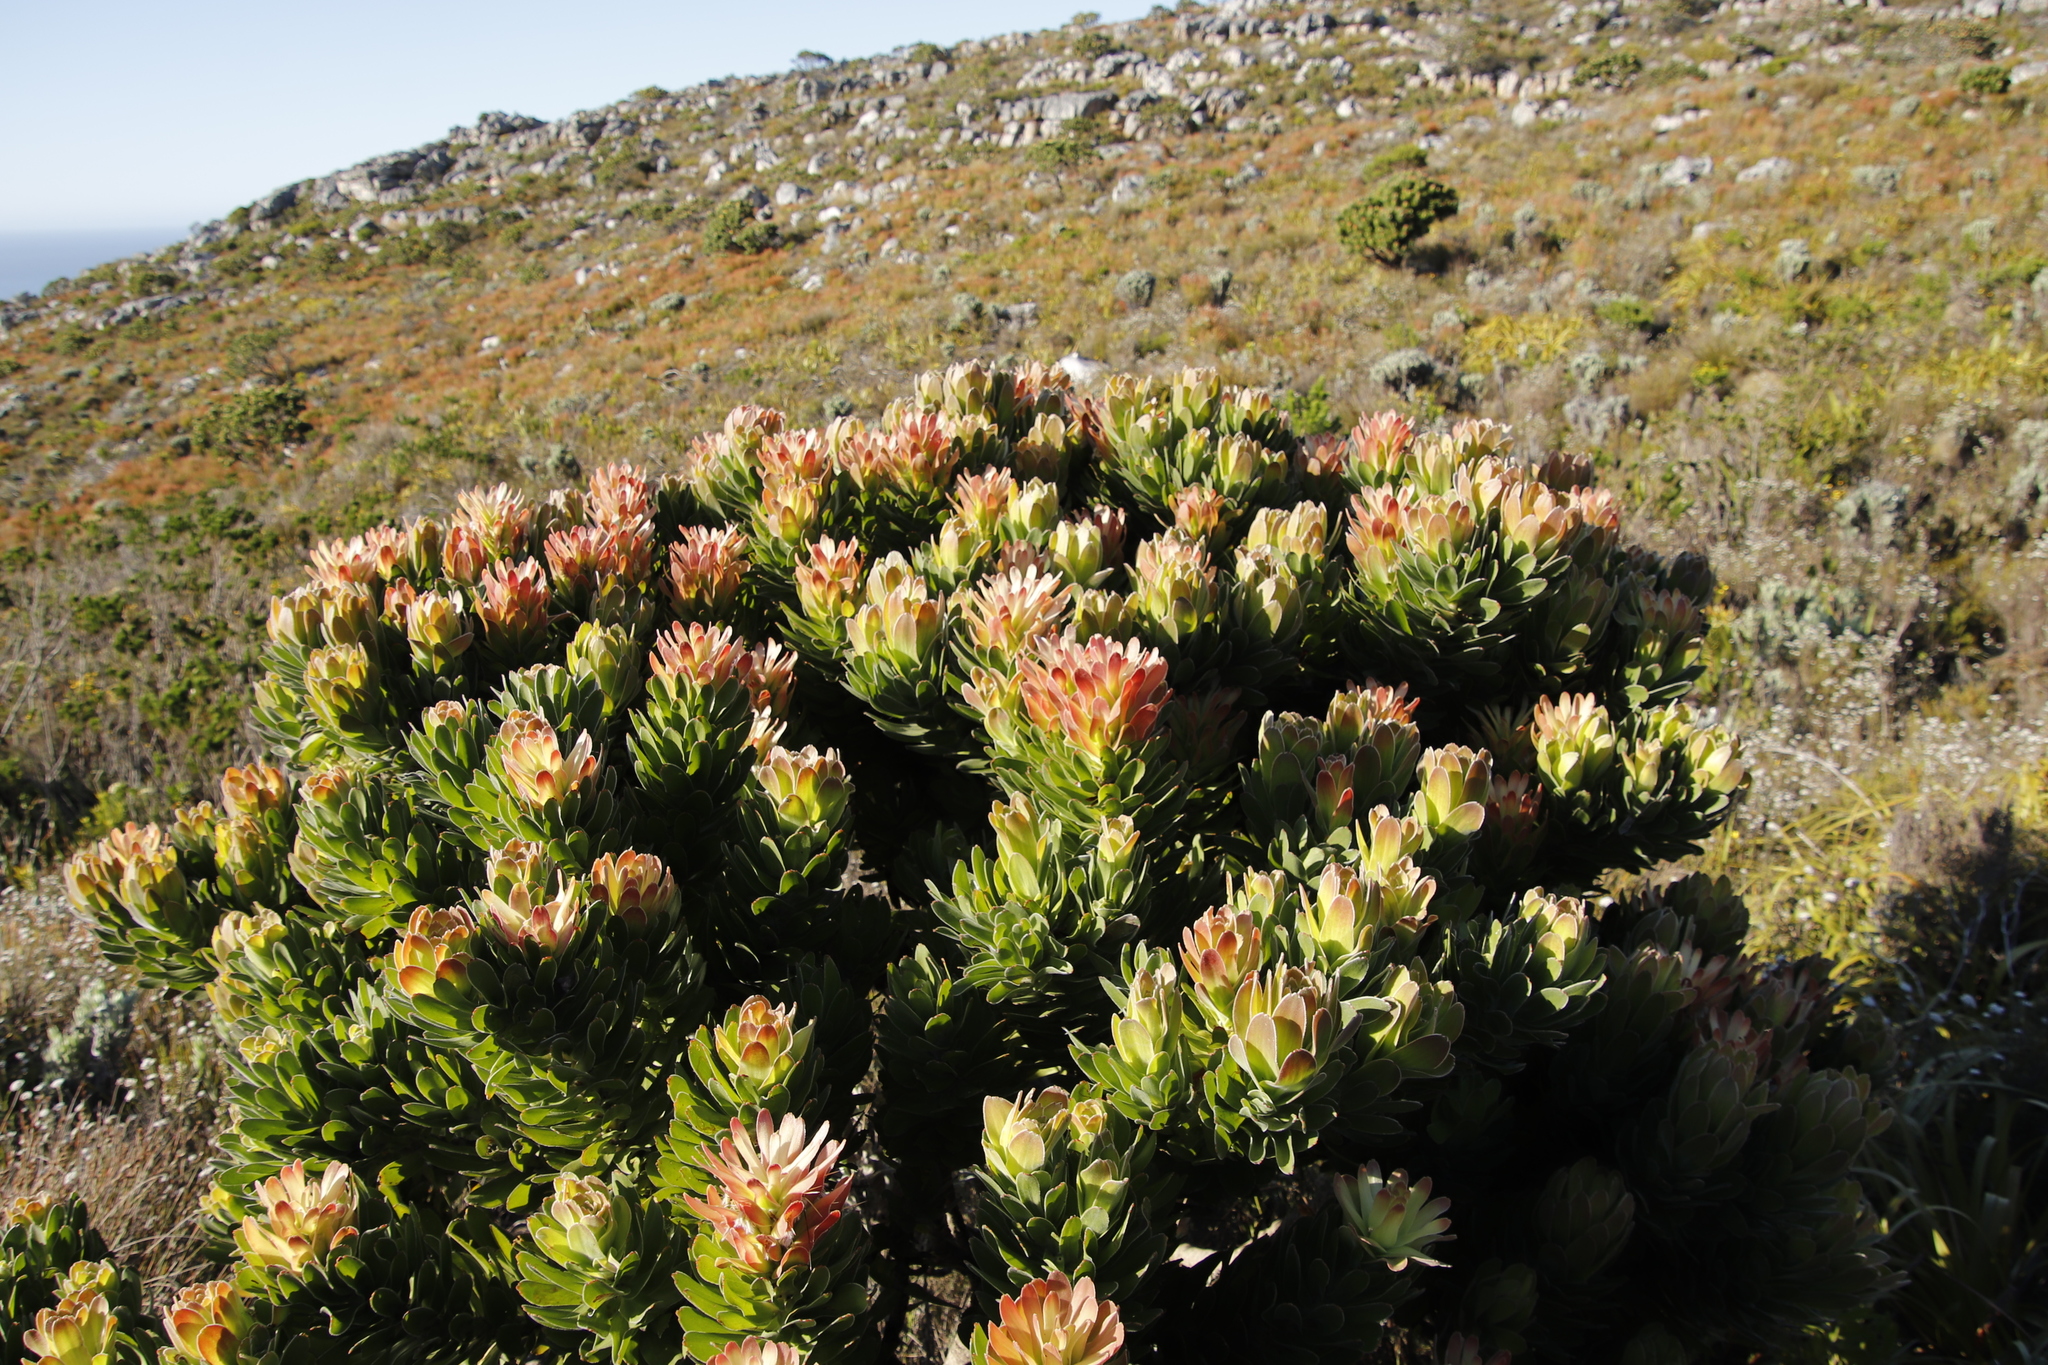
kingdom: Plantae
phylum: Tracheophyta
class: Magnoliopsida
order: Proteales
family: Proteaceae
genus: Mimetes
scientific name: Mimetes fimbriifolius
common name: Fringed bottlebrush
